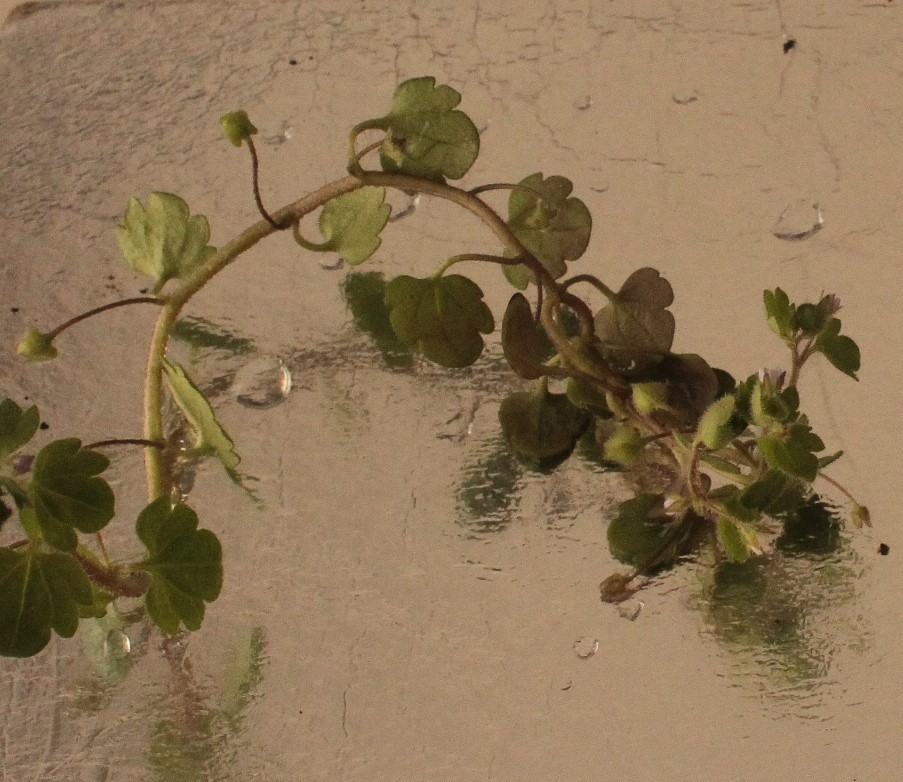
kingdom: Plantae
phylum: Tracheophyta
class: Magnoliopsida
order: Lamiales
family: Plantaginaceae
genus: Veronica
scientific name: Veronica hederifolia
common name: Ivy-leaved speedwell
